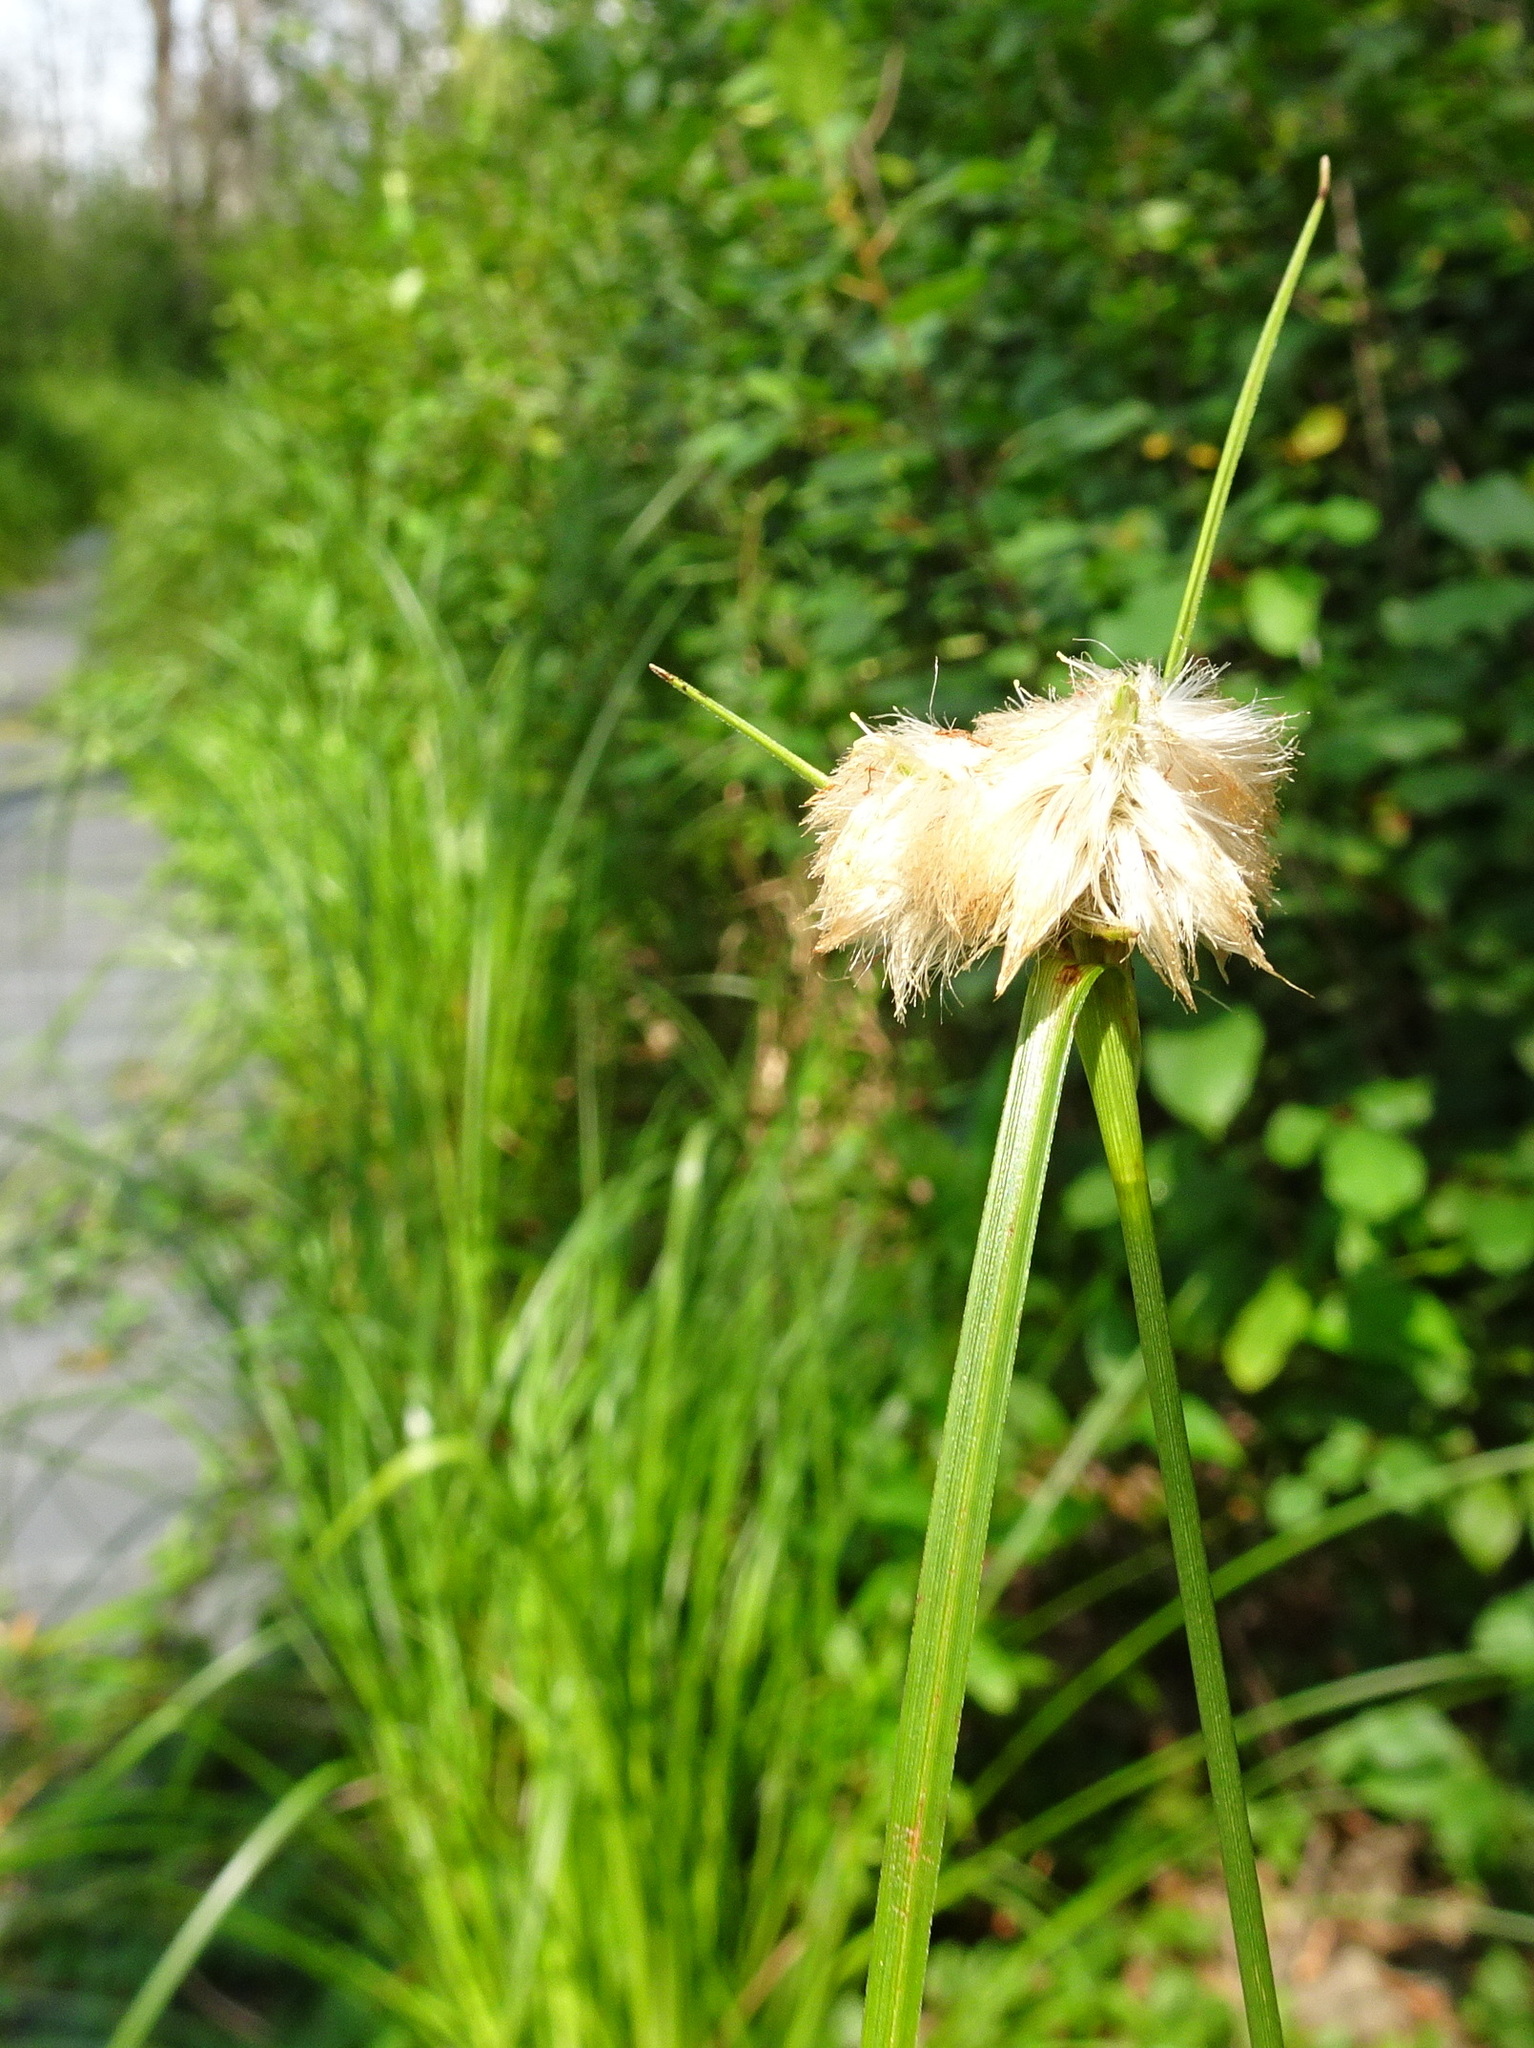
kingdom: Plantae
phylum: Tracheophyta
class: Liliopsida
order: Poales
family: Cyperaceae
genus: Eriophorum
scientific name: Eriophorum virginicum
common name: Tawny cottongrass
